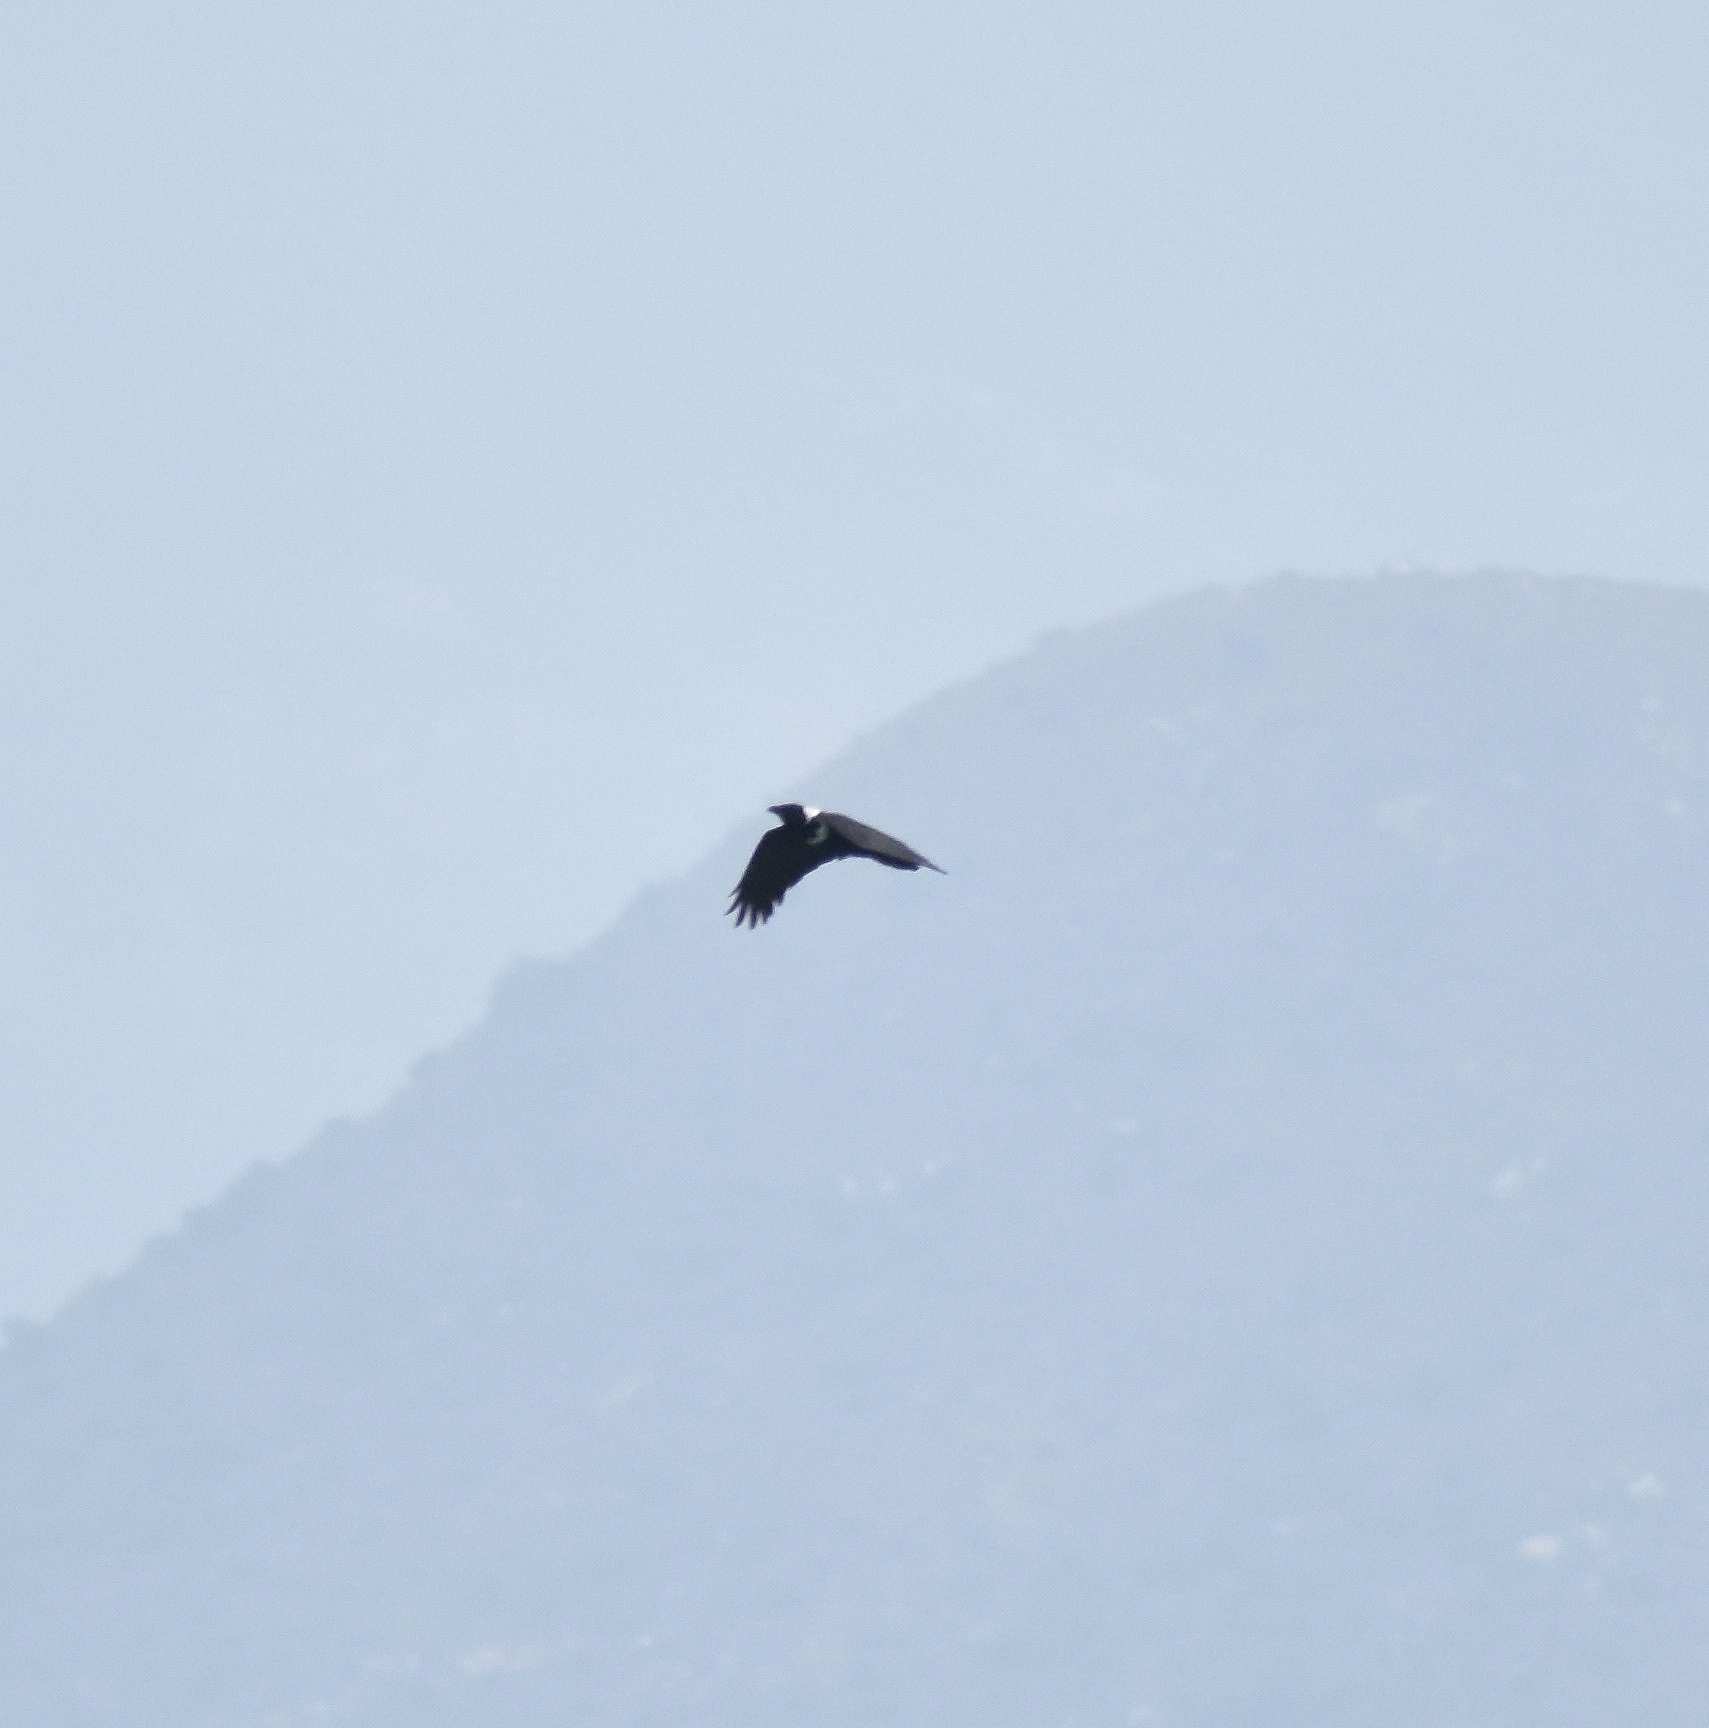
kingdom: Animalia
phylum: Chordata
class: Aves
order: Passeriformes
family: Corvidae
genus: Corvus
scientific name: Corvus pectoralis
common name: Collared crow
